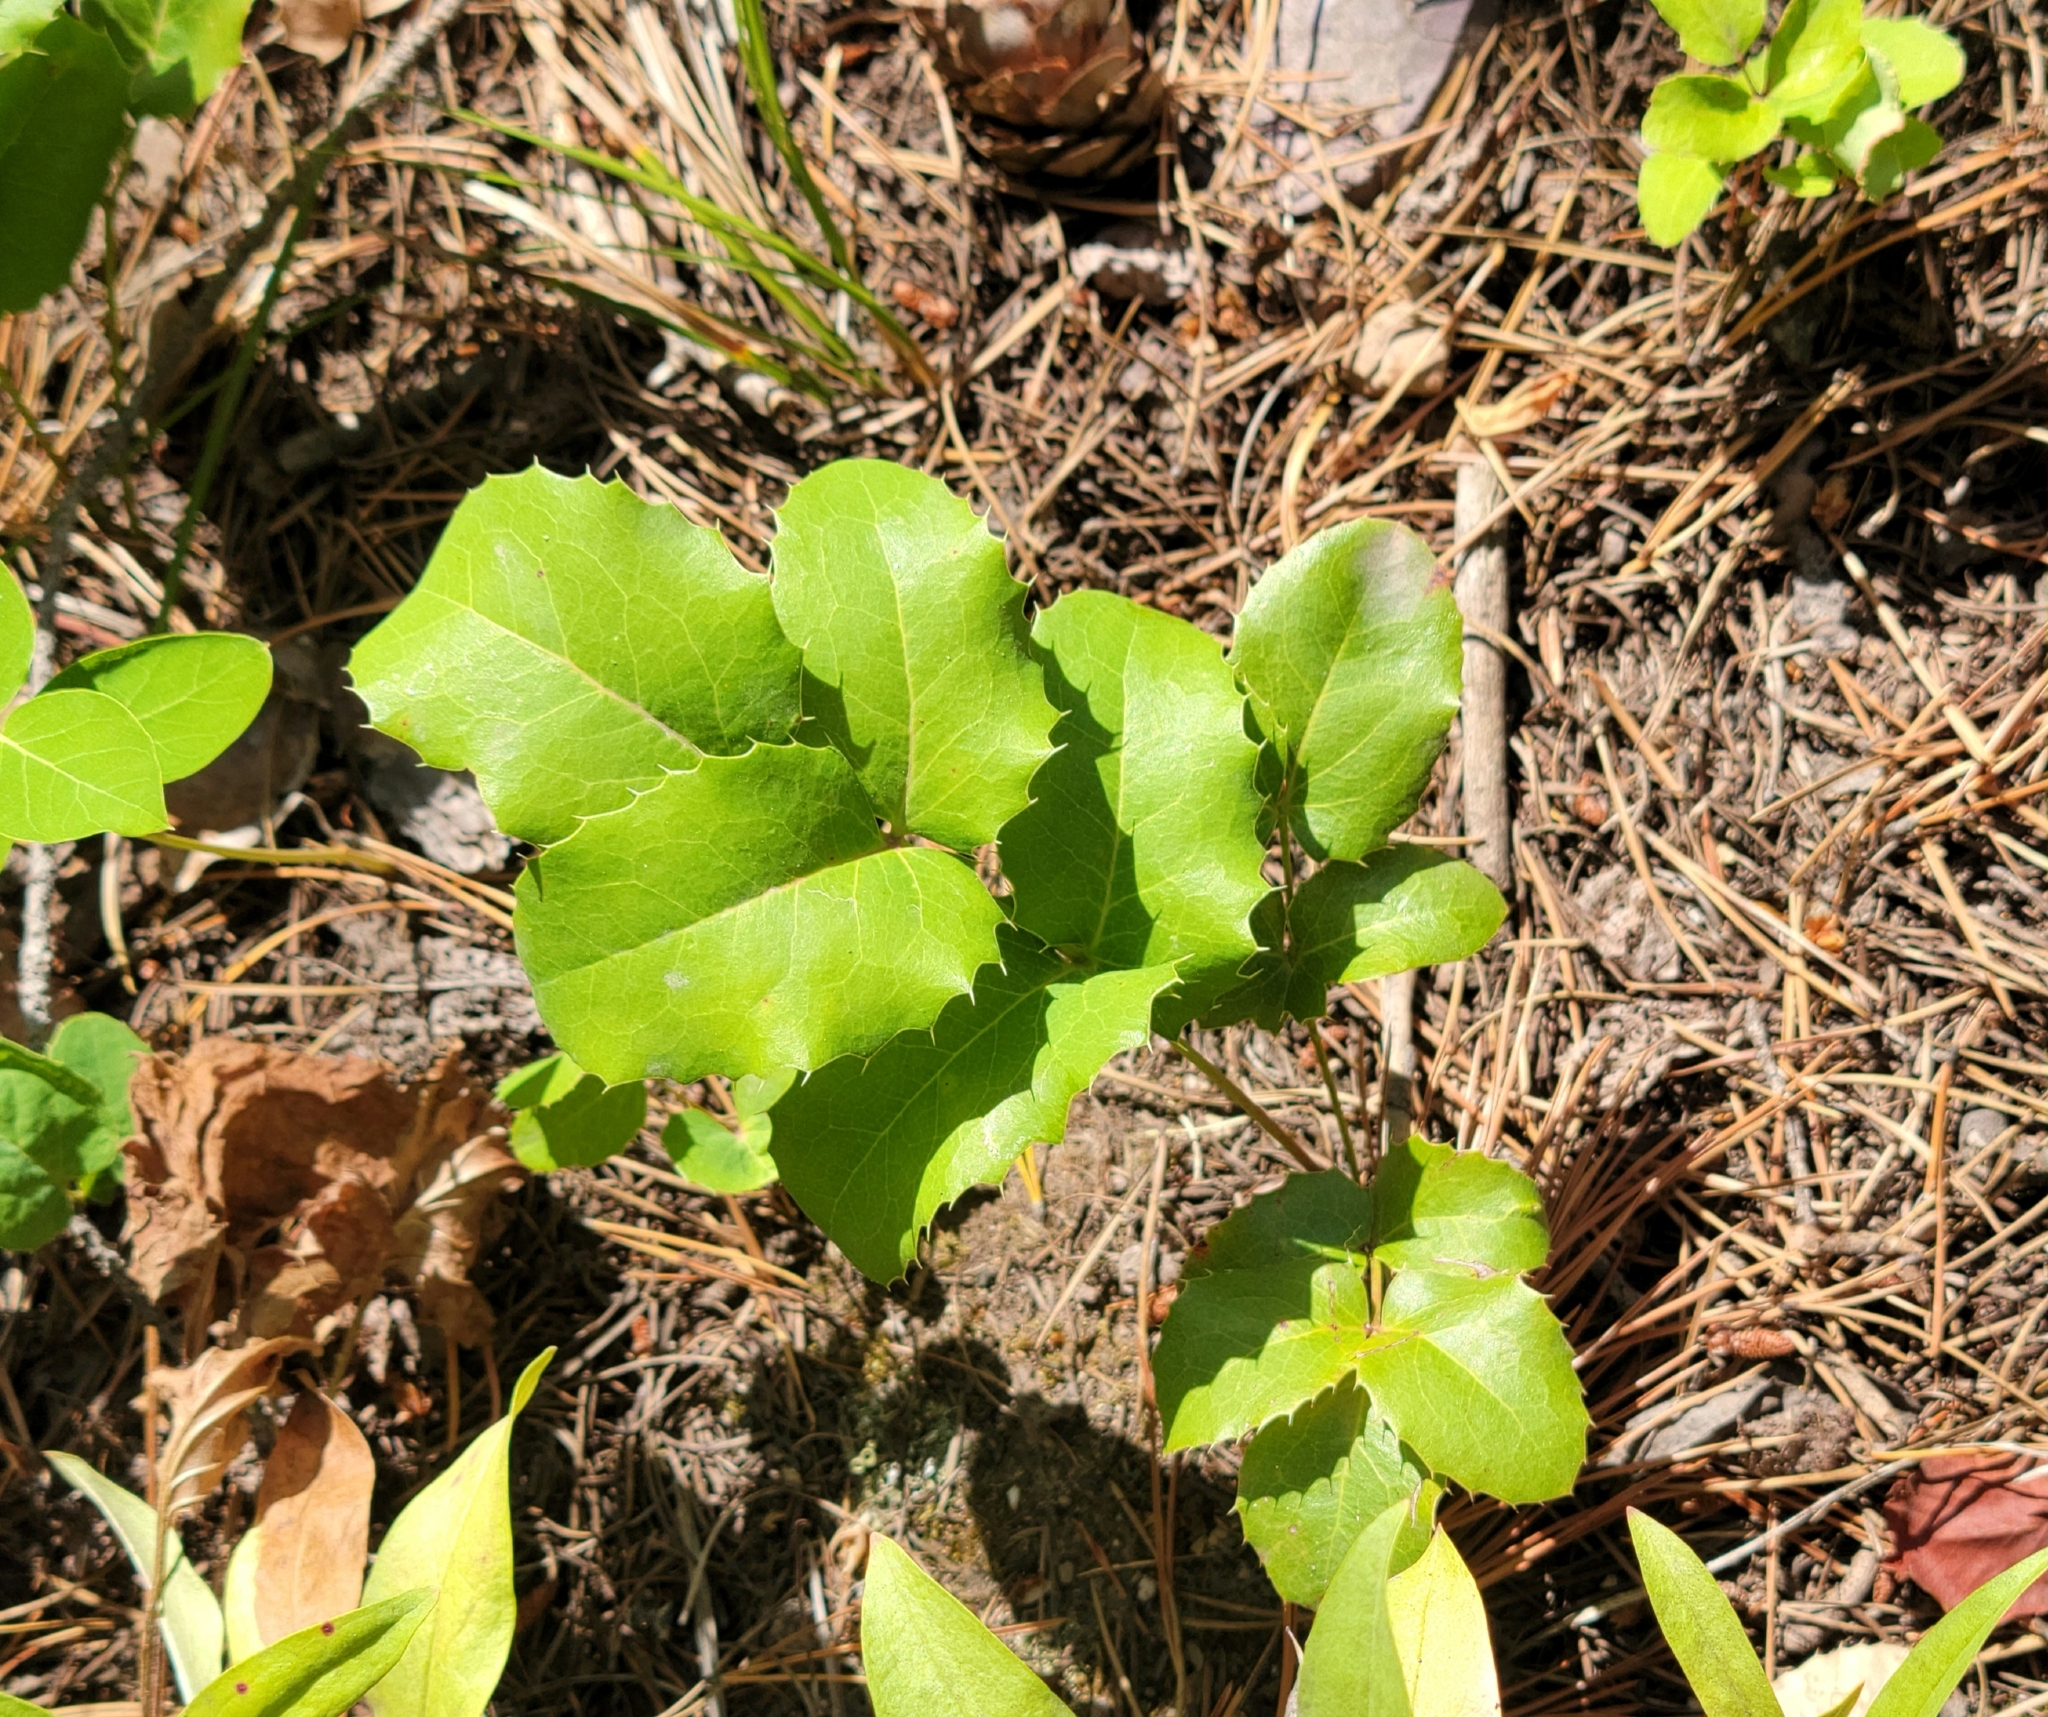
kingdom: Plantae
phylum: Tracheophyta
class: Magnoliopsida
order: Ranunculales
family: Berberidaceae
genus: Mahonia
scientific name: Mahonia repens
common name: Creeping oregon-grape
